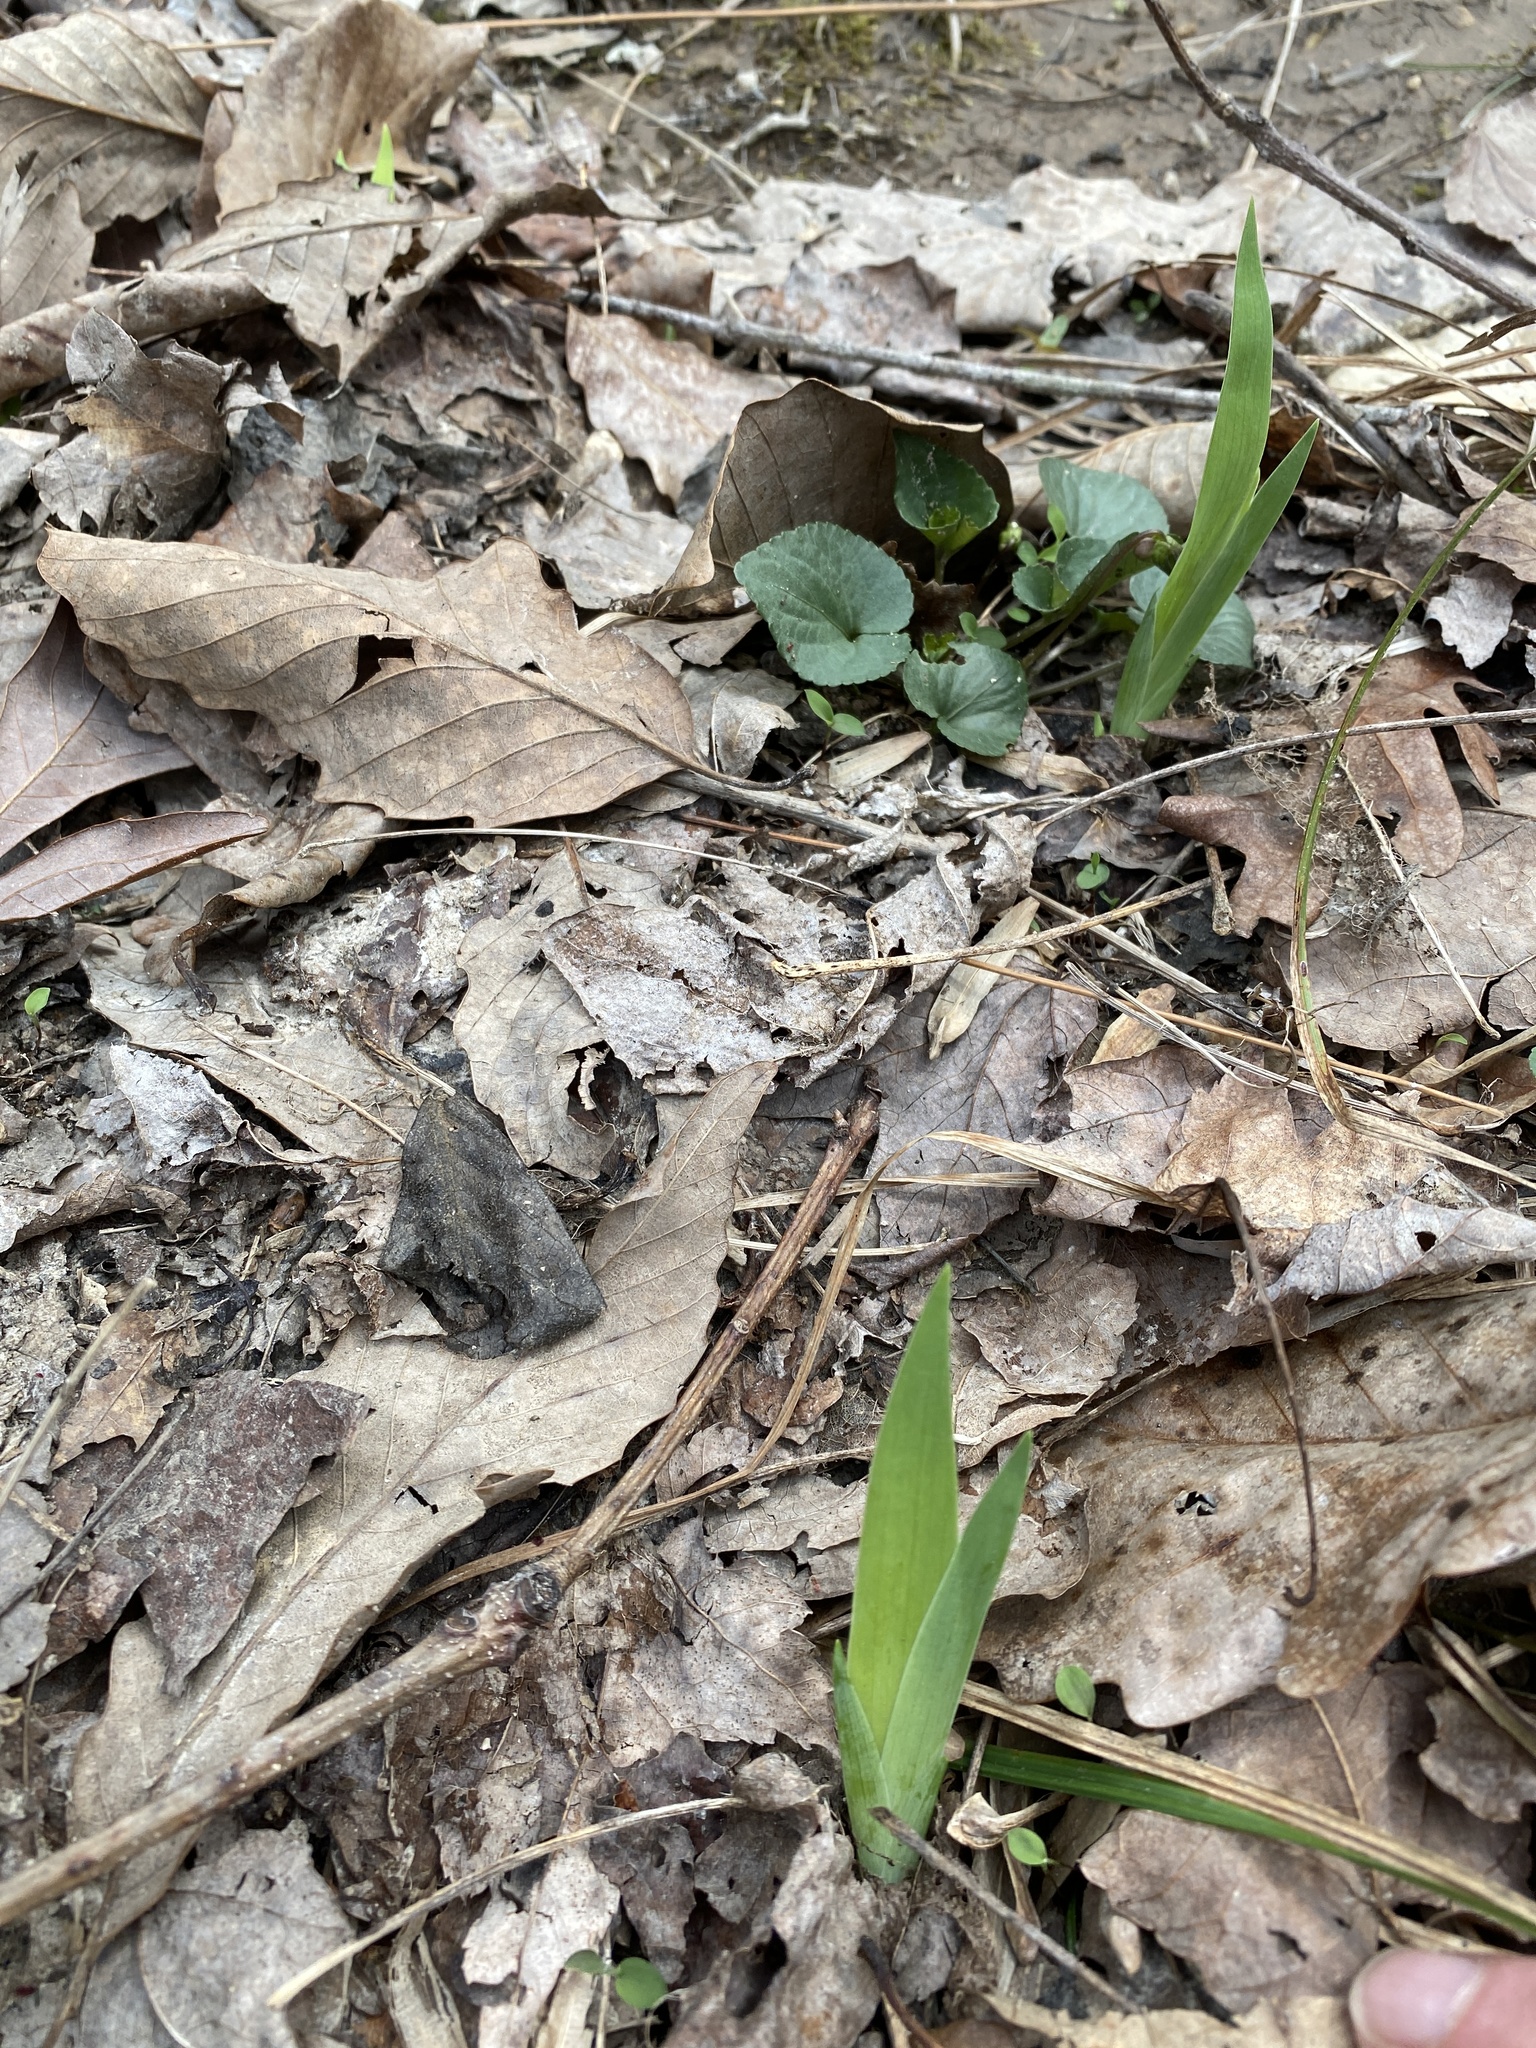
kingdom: Plantae
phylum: Tracheophyta
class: Liliopsida
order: Asparagales
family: Iridaceae
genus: Iris
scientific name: Iris cristata
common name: Crested iris
